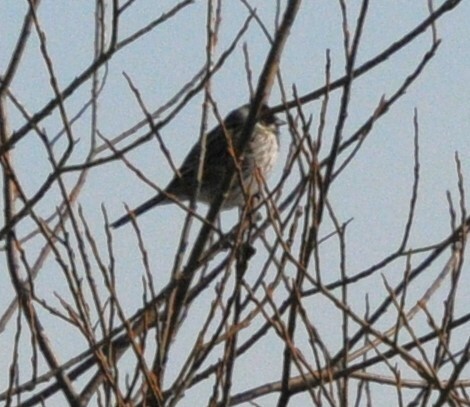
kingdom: Animalia
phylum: Chordata
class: Aves
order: Passeriformes
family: Emberizidae
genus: Emberiza
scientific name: Emberiza schoeniclus
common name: Reed bunting
